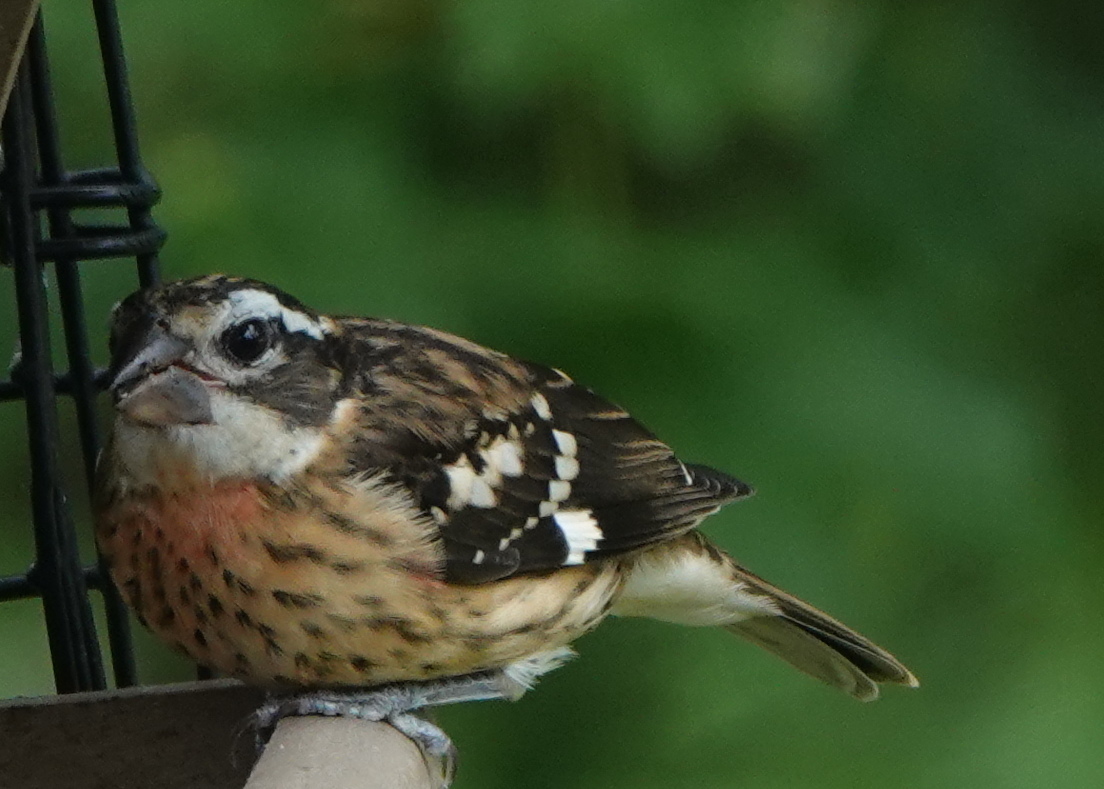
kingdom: Animalia
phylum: Chordata
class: Aves
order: Passeriformes
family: Cardinalidae
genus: Pheucticus
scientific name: Pheucticus ludovicianus
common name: Rose-breasted grosbeak
